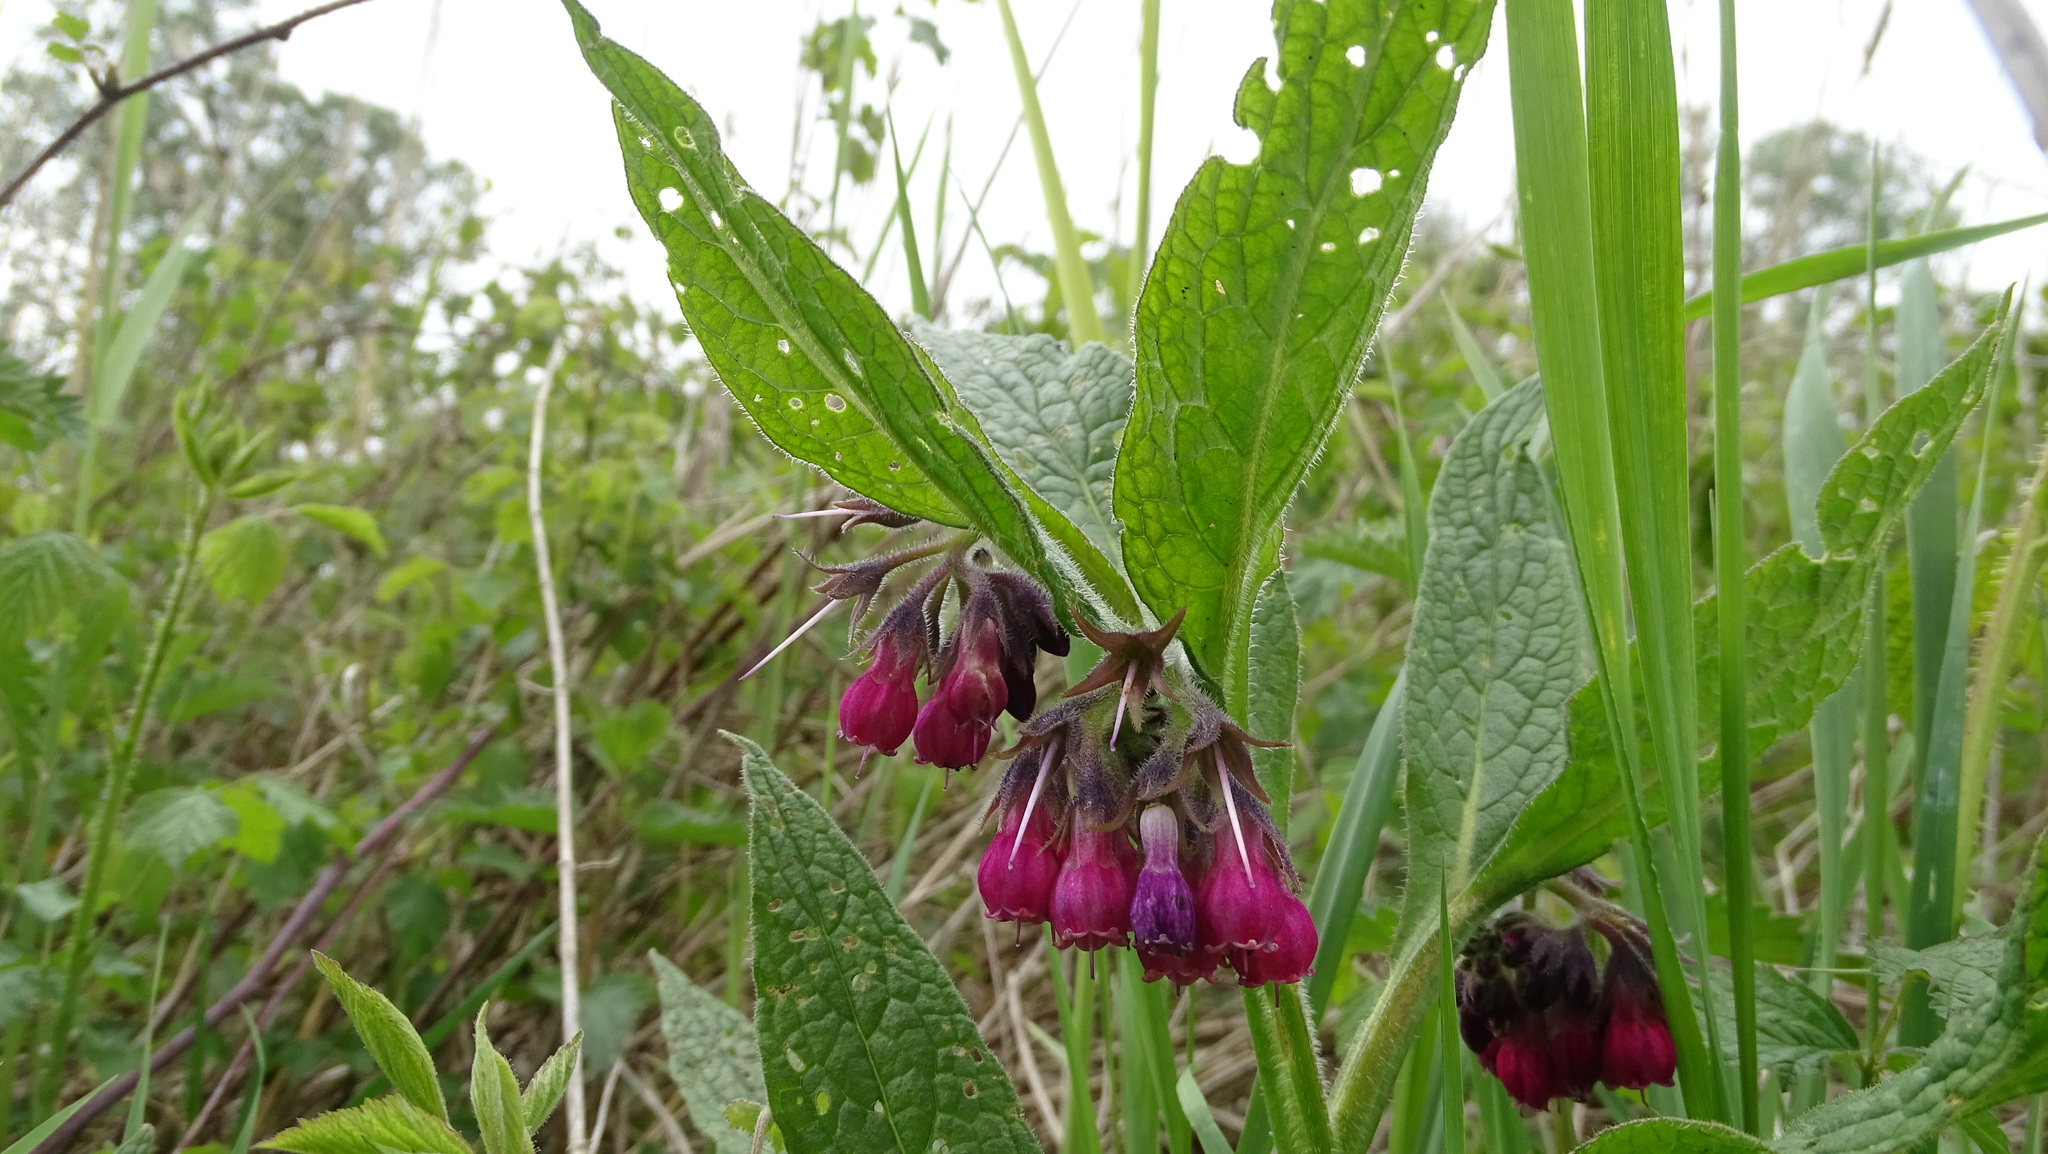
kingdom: Plantae
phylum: Tracheophyta
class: Magnoliopsida
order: Boraginales
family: Boraginaceae
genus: Symphytum
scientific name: Symphytum officinale
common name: Common comfrey
